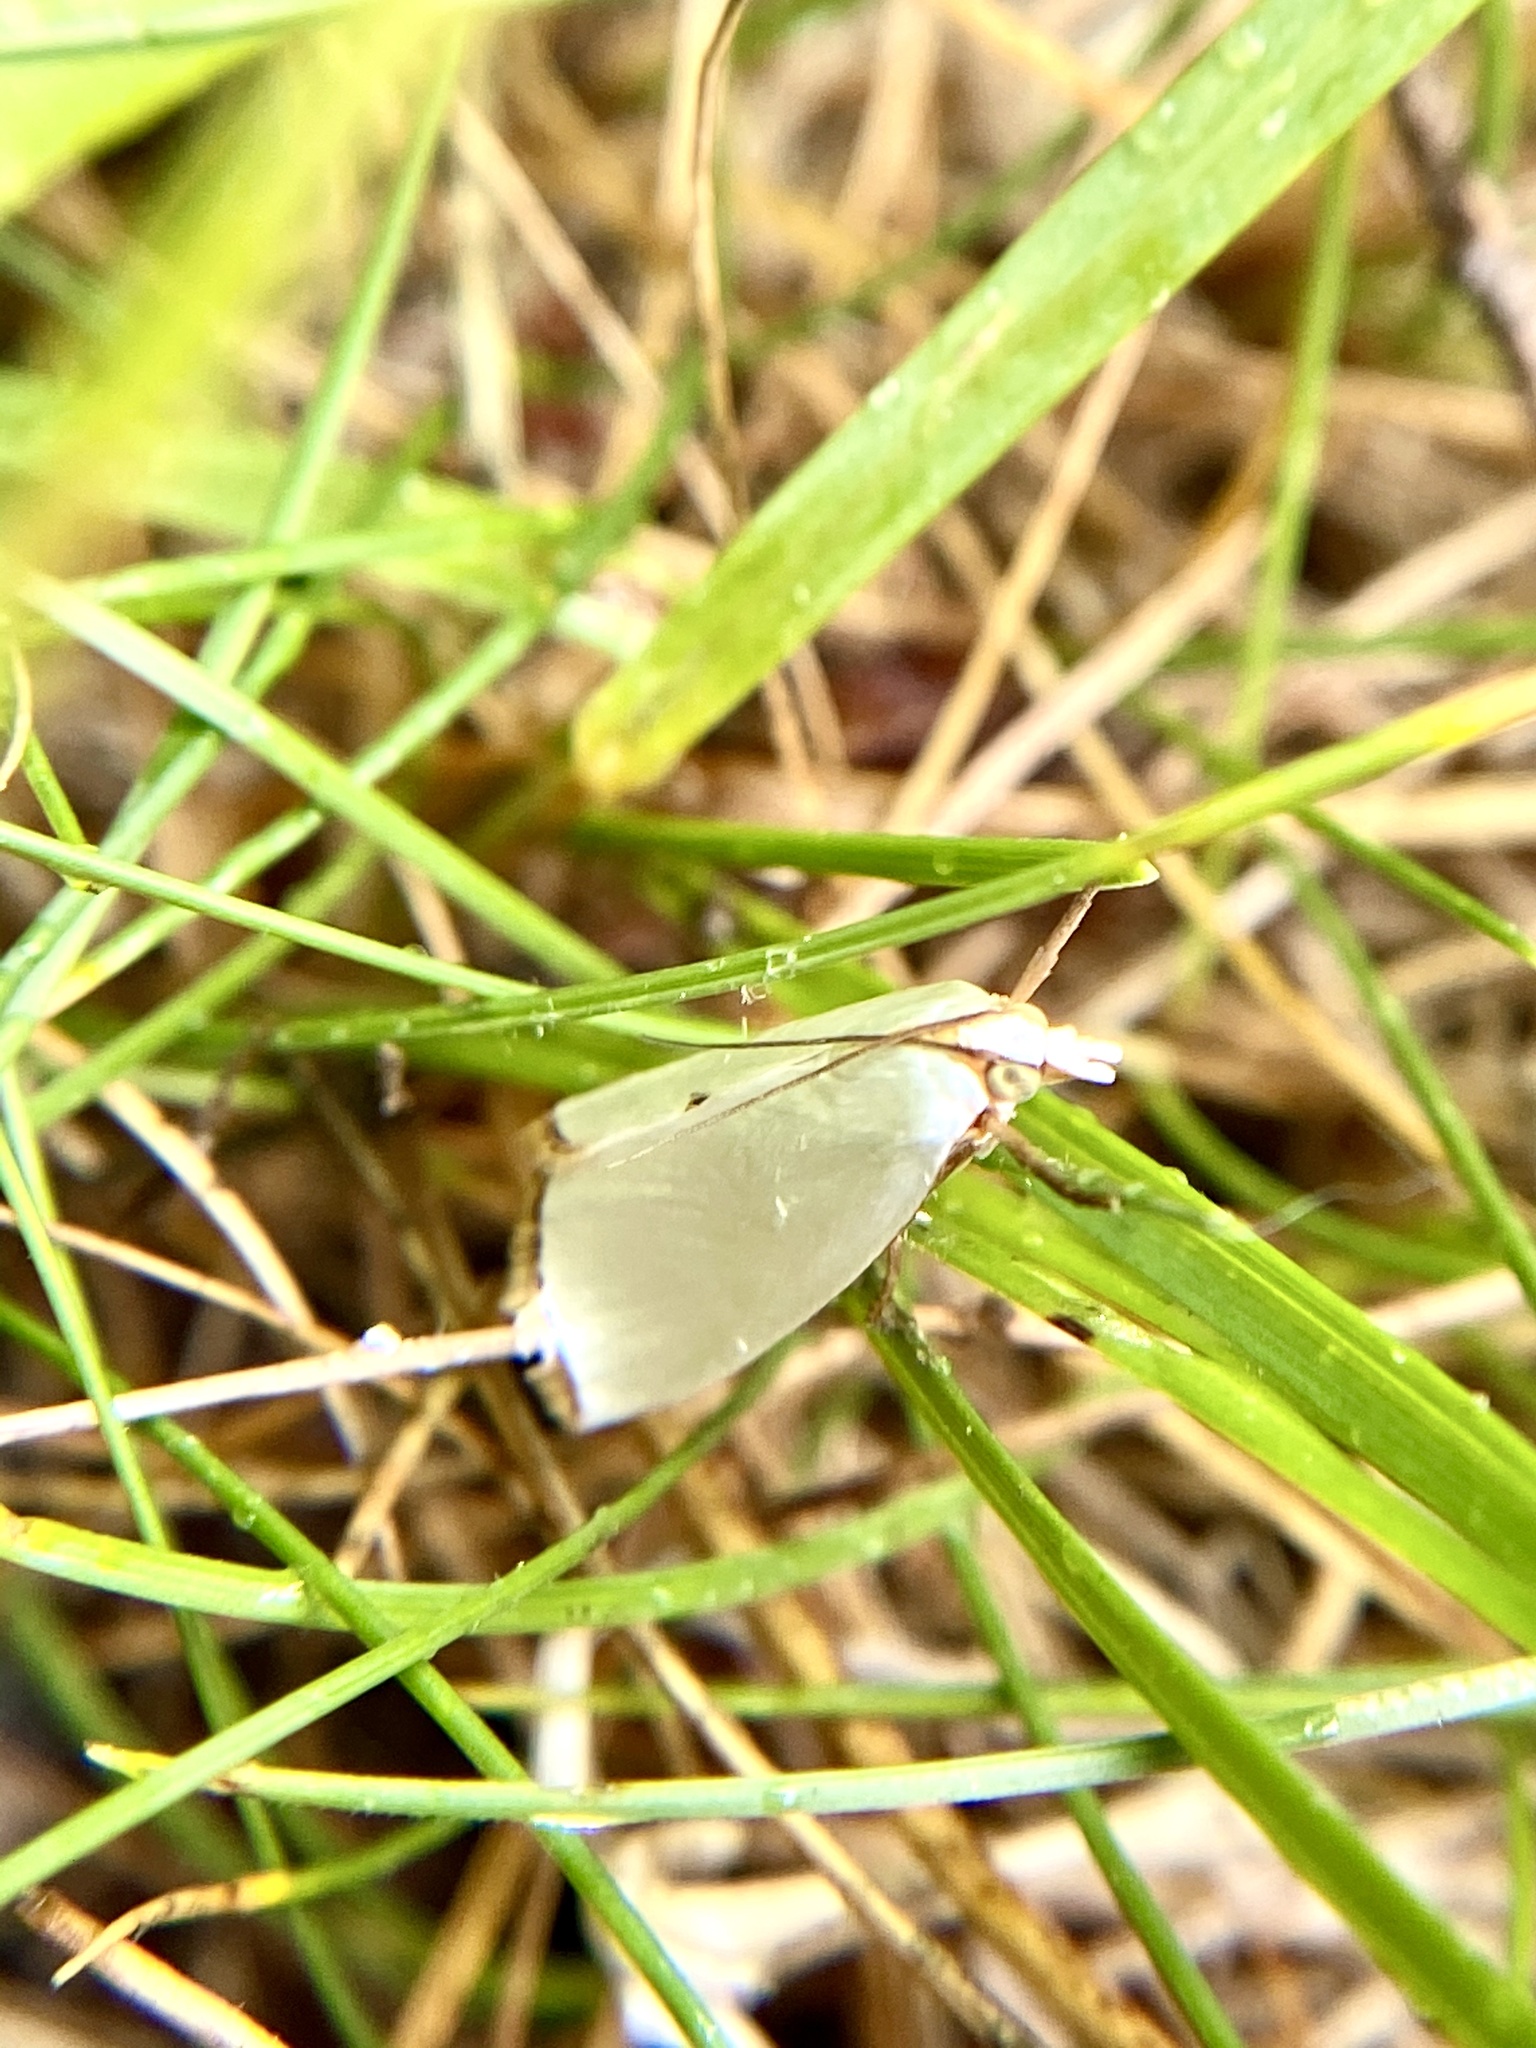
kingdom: Animalia
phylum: Arthropoda
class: Insecta
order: Lepidoptera
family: Crambidae
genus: Argyria
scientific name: Argyria nivalis
